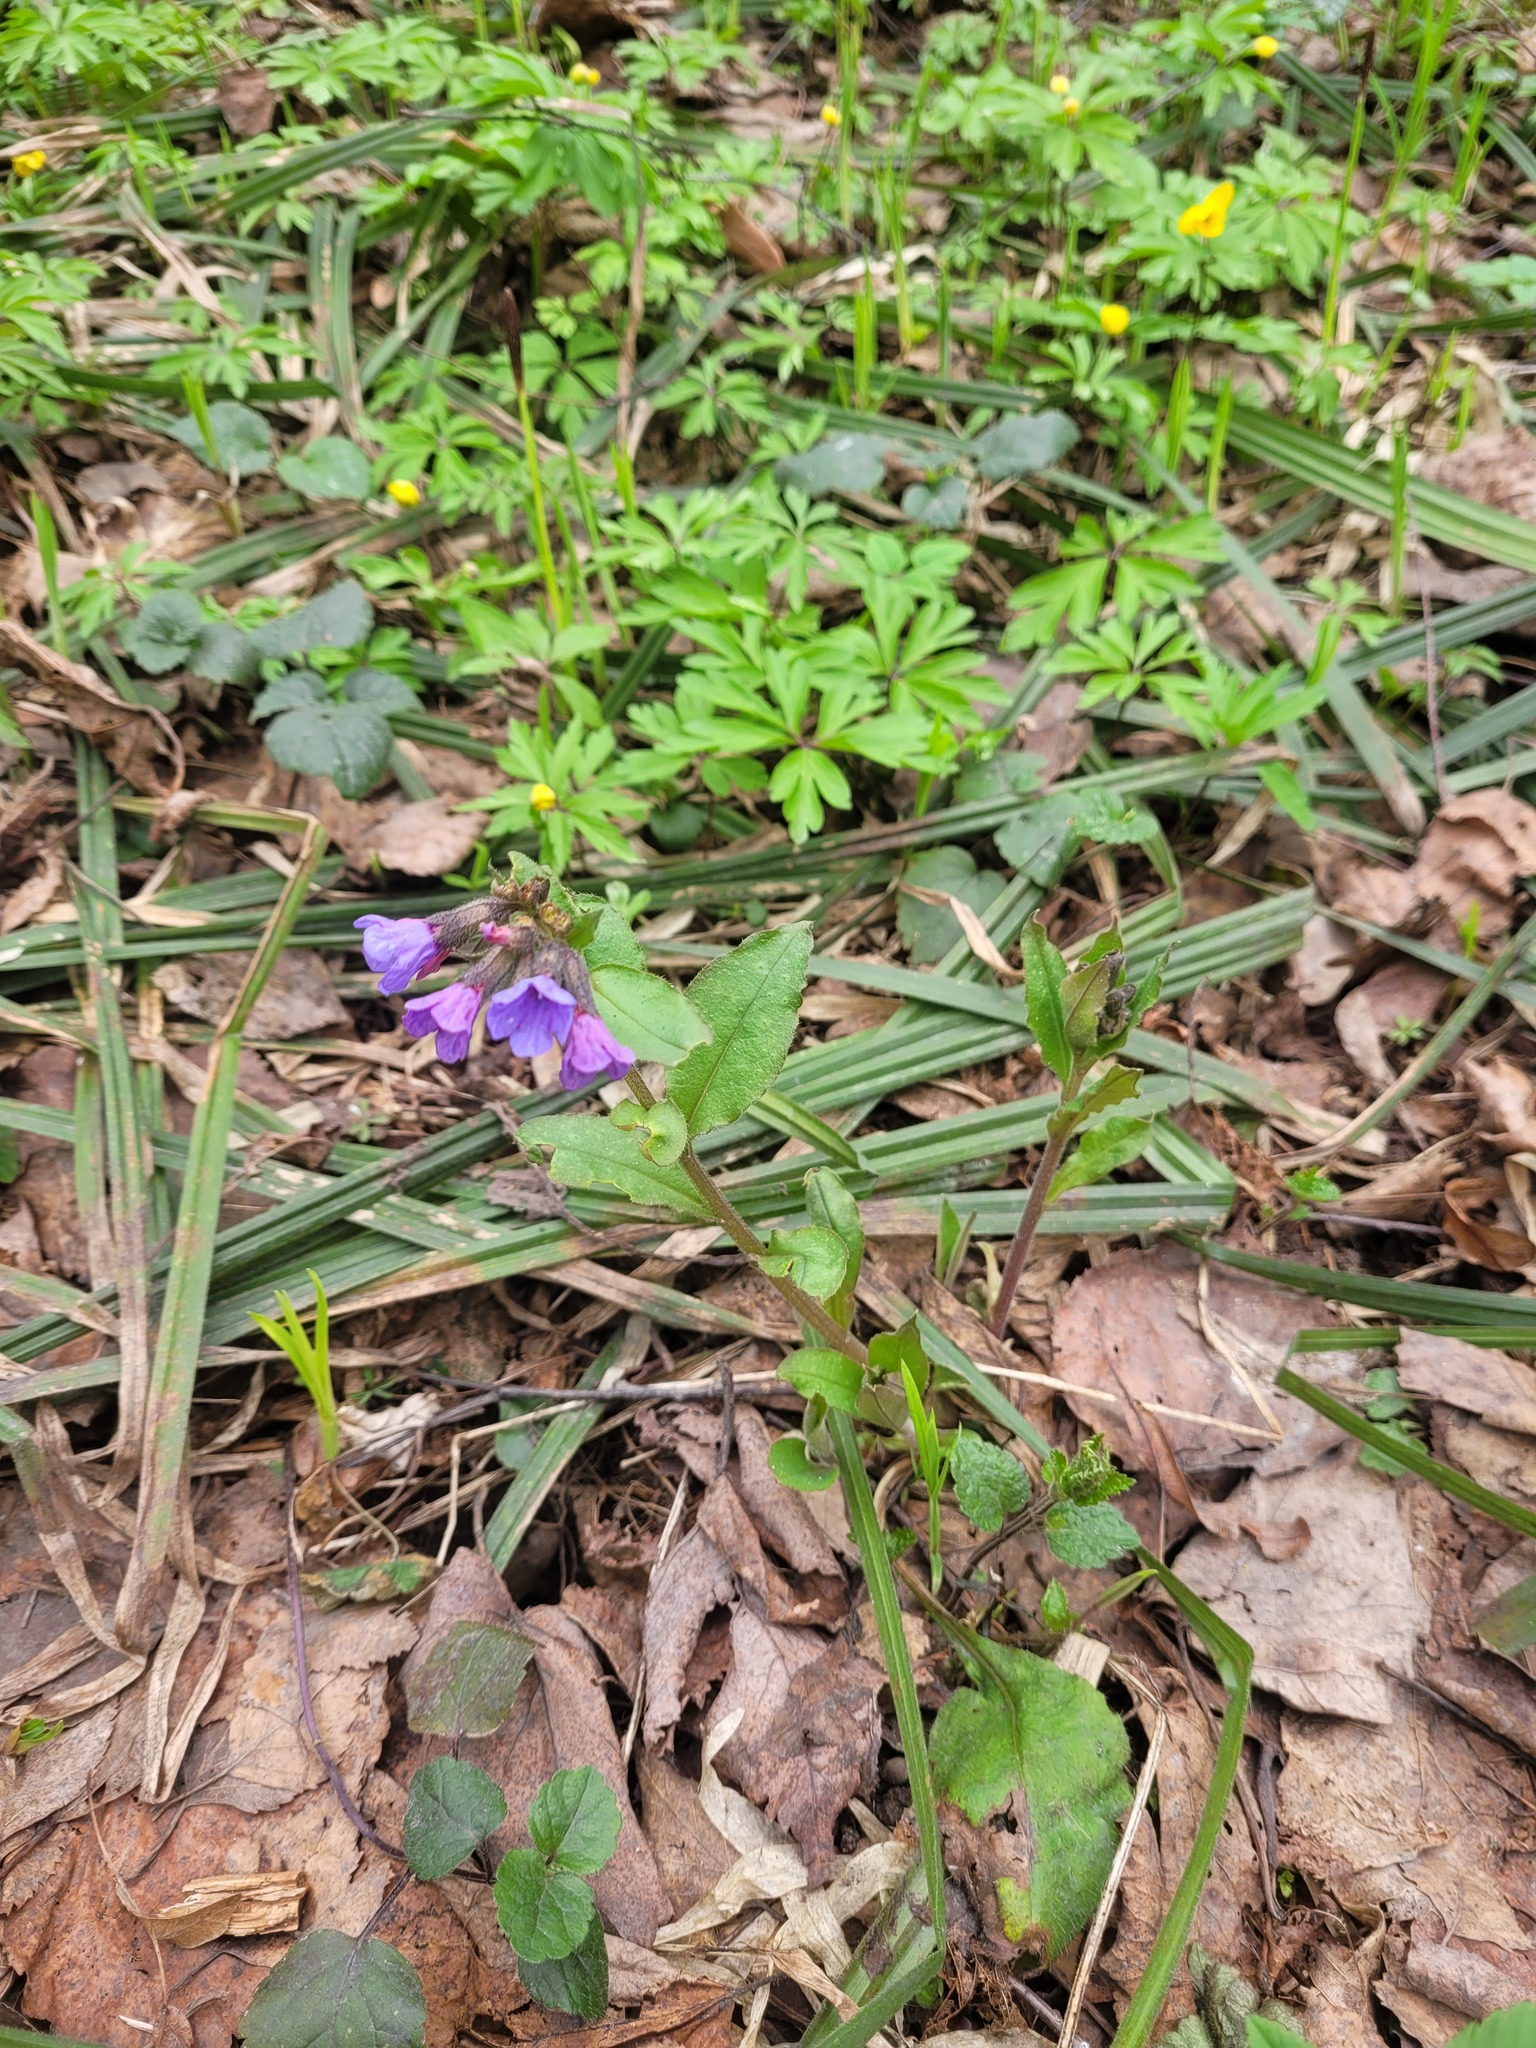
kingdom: Plantae
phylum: Tracheophyta
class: Magnoliopsida
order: Boraginales
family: Boraginaceae
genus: Pulmonaria
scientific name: Pulmonaria obscura
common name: Suffolk lungwort
